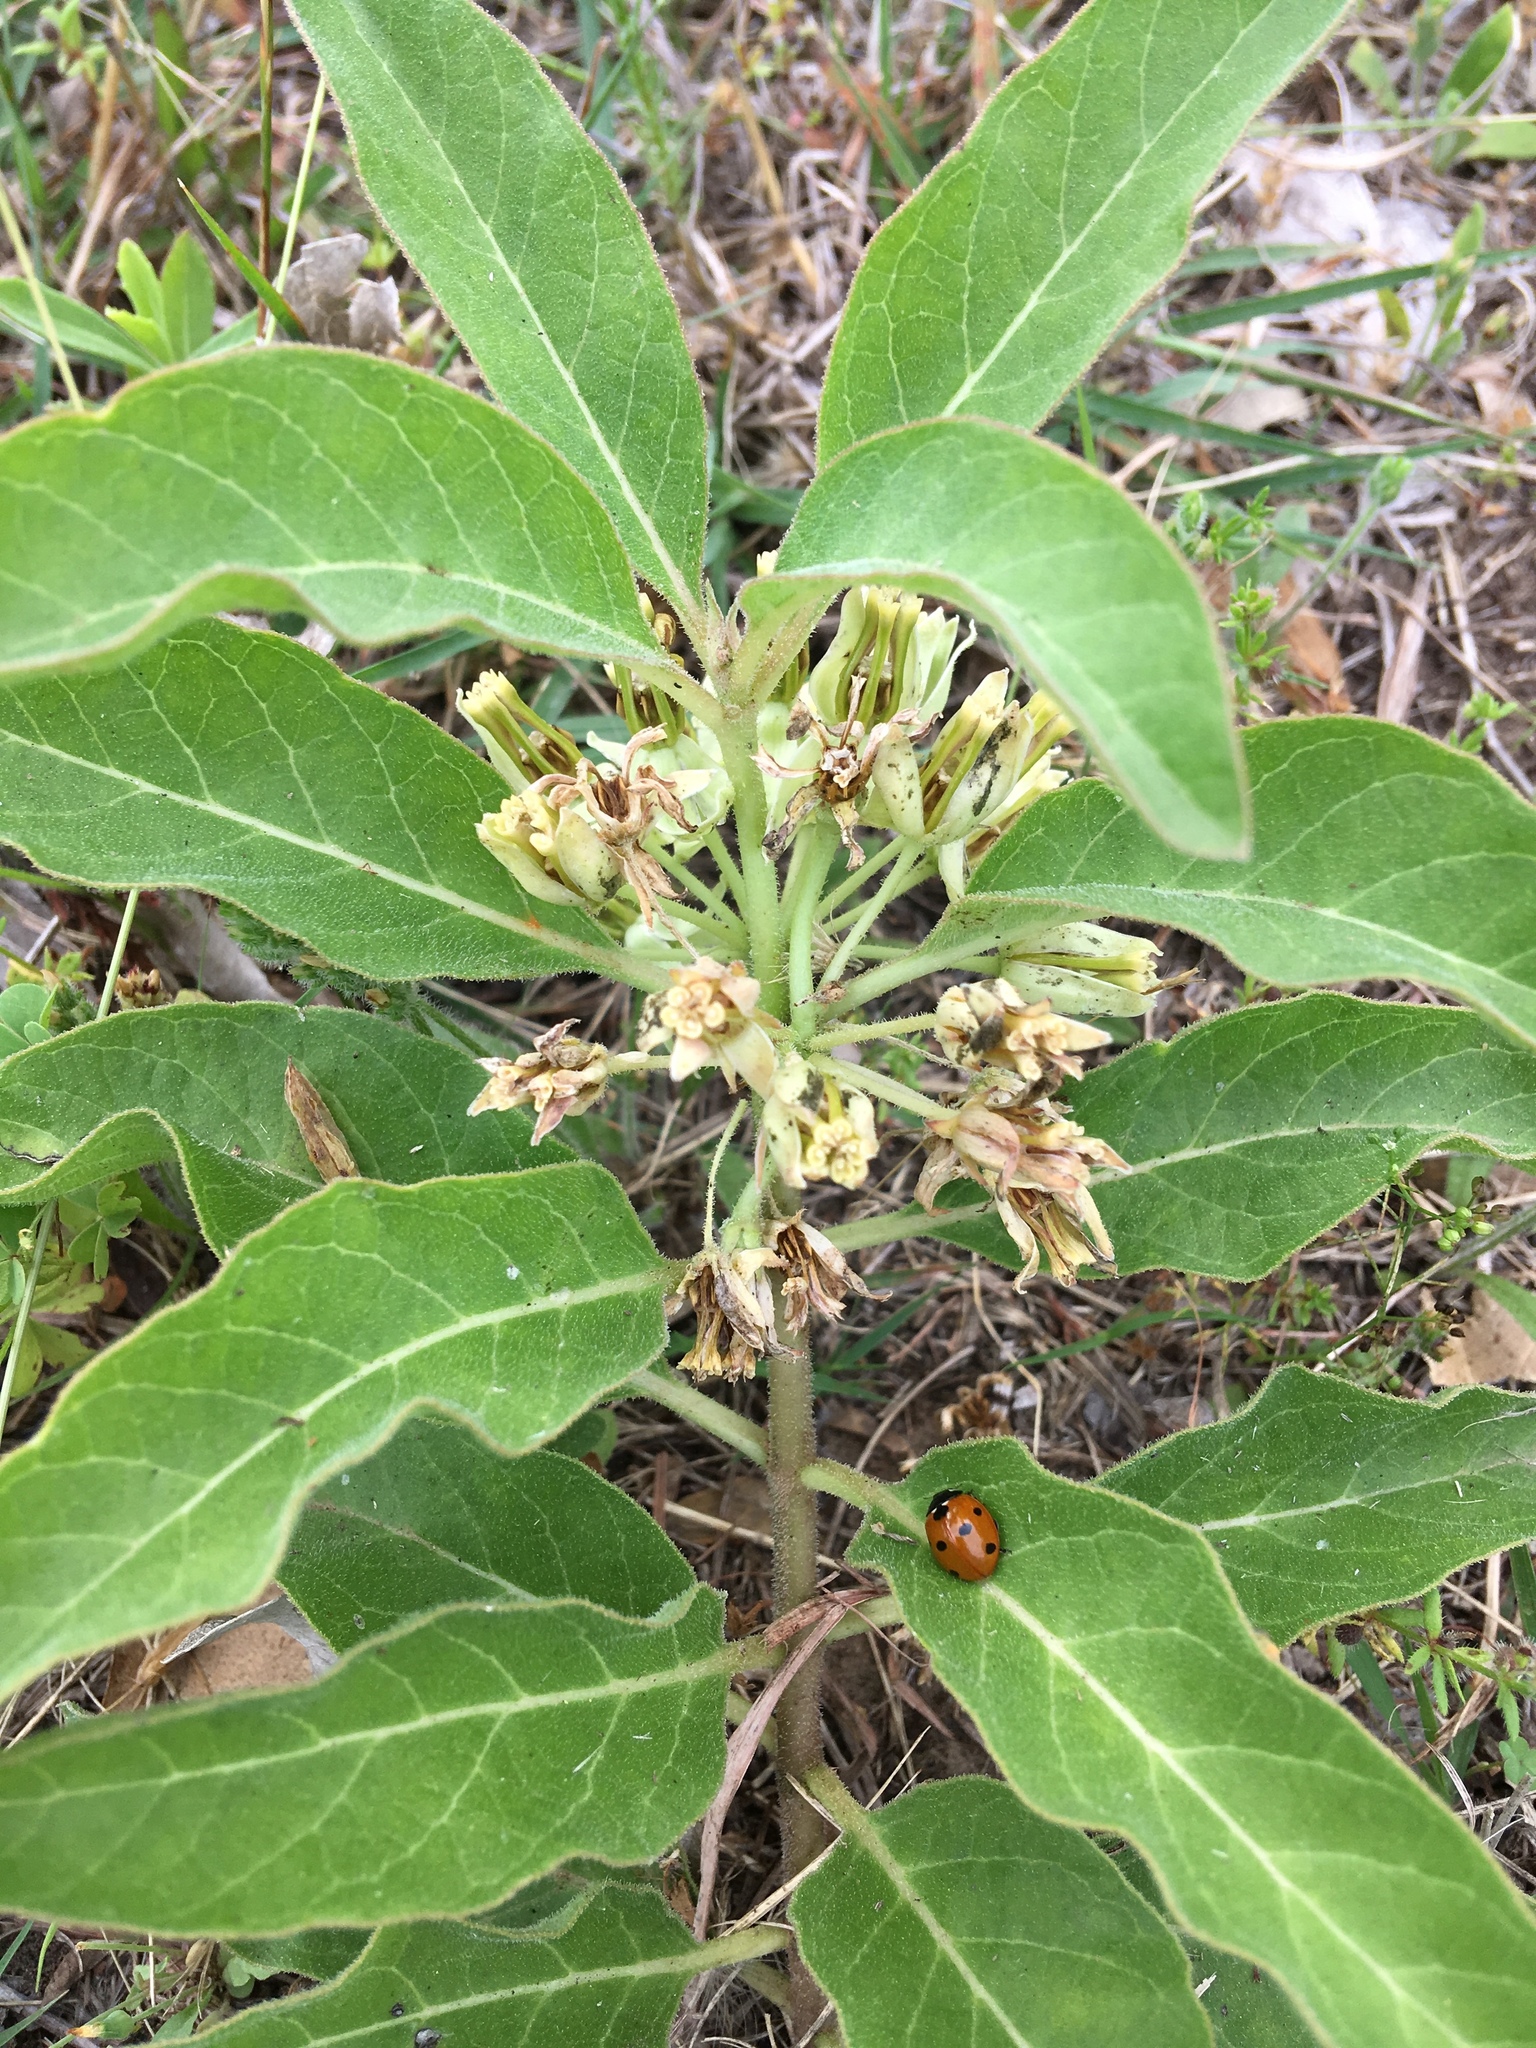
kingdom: Plantae
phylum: Tracheophyta
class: Magnoliopsida
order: Gentianales
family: Apocynaceae
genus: Asclepias
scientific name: Asclepias oenotheroides
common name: Zizotes milkweed
